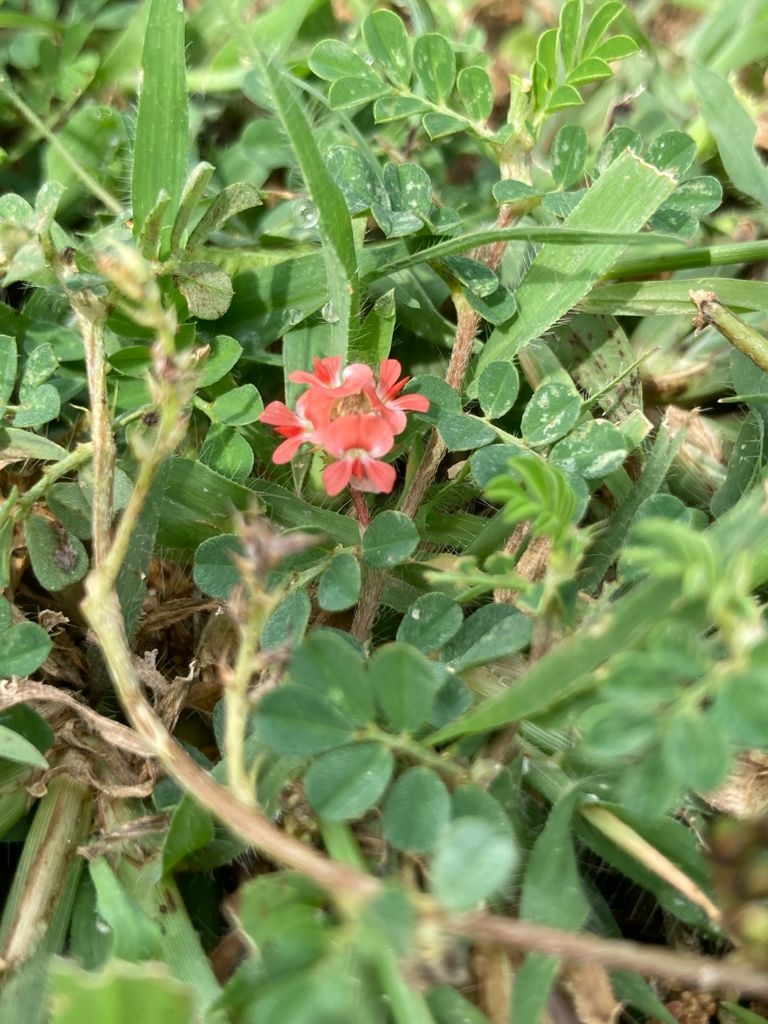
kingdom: Plantae
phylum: Tracheophyta
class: Magnoliopsida
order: Fabales
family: Fabaceae
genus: Indigofera
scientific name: Indigofera linnaei
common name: Nine-leaf indigo
